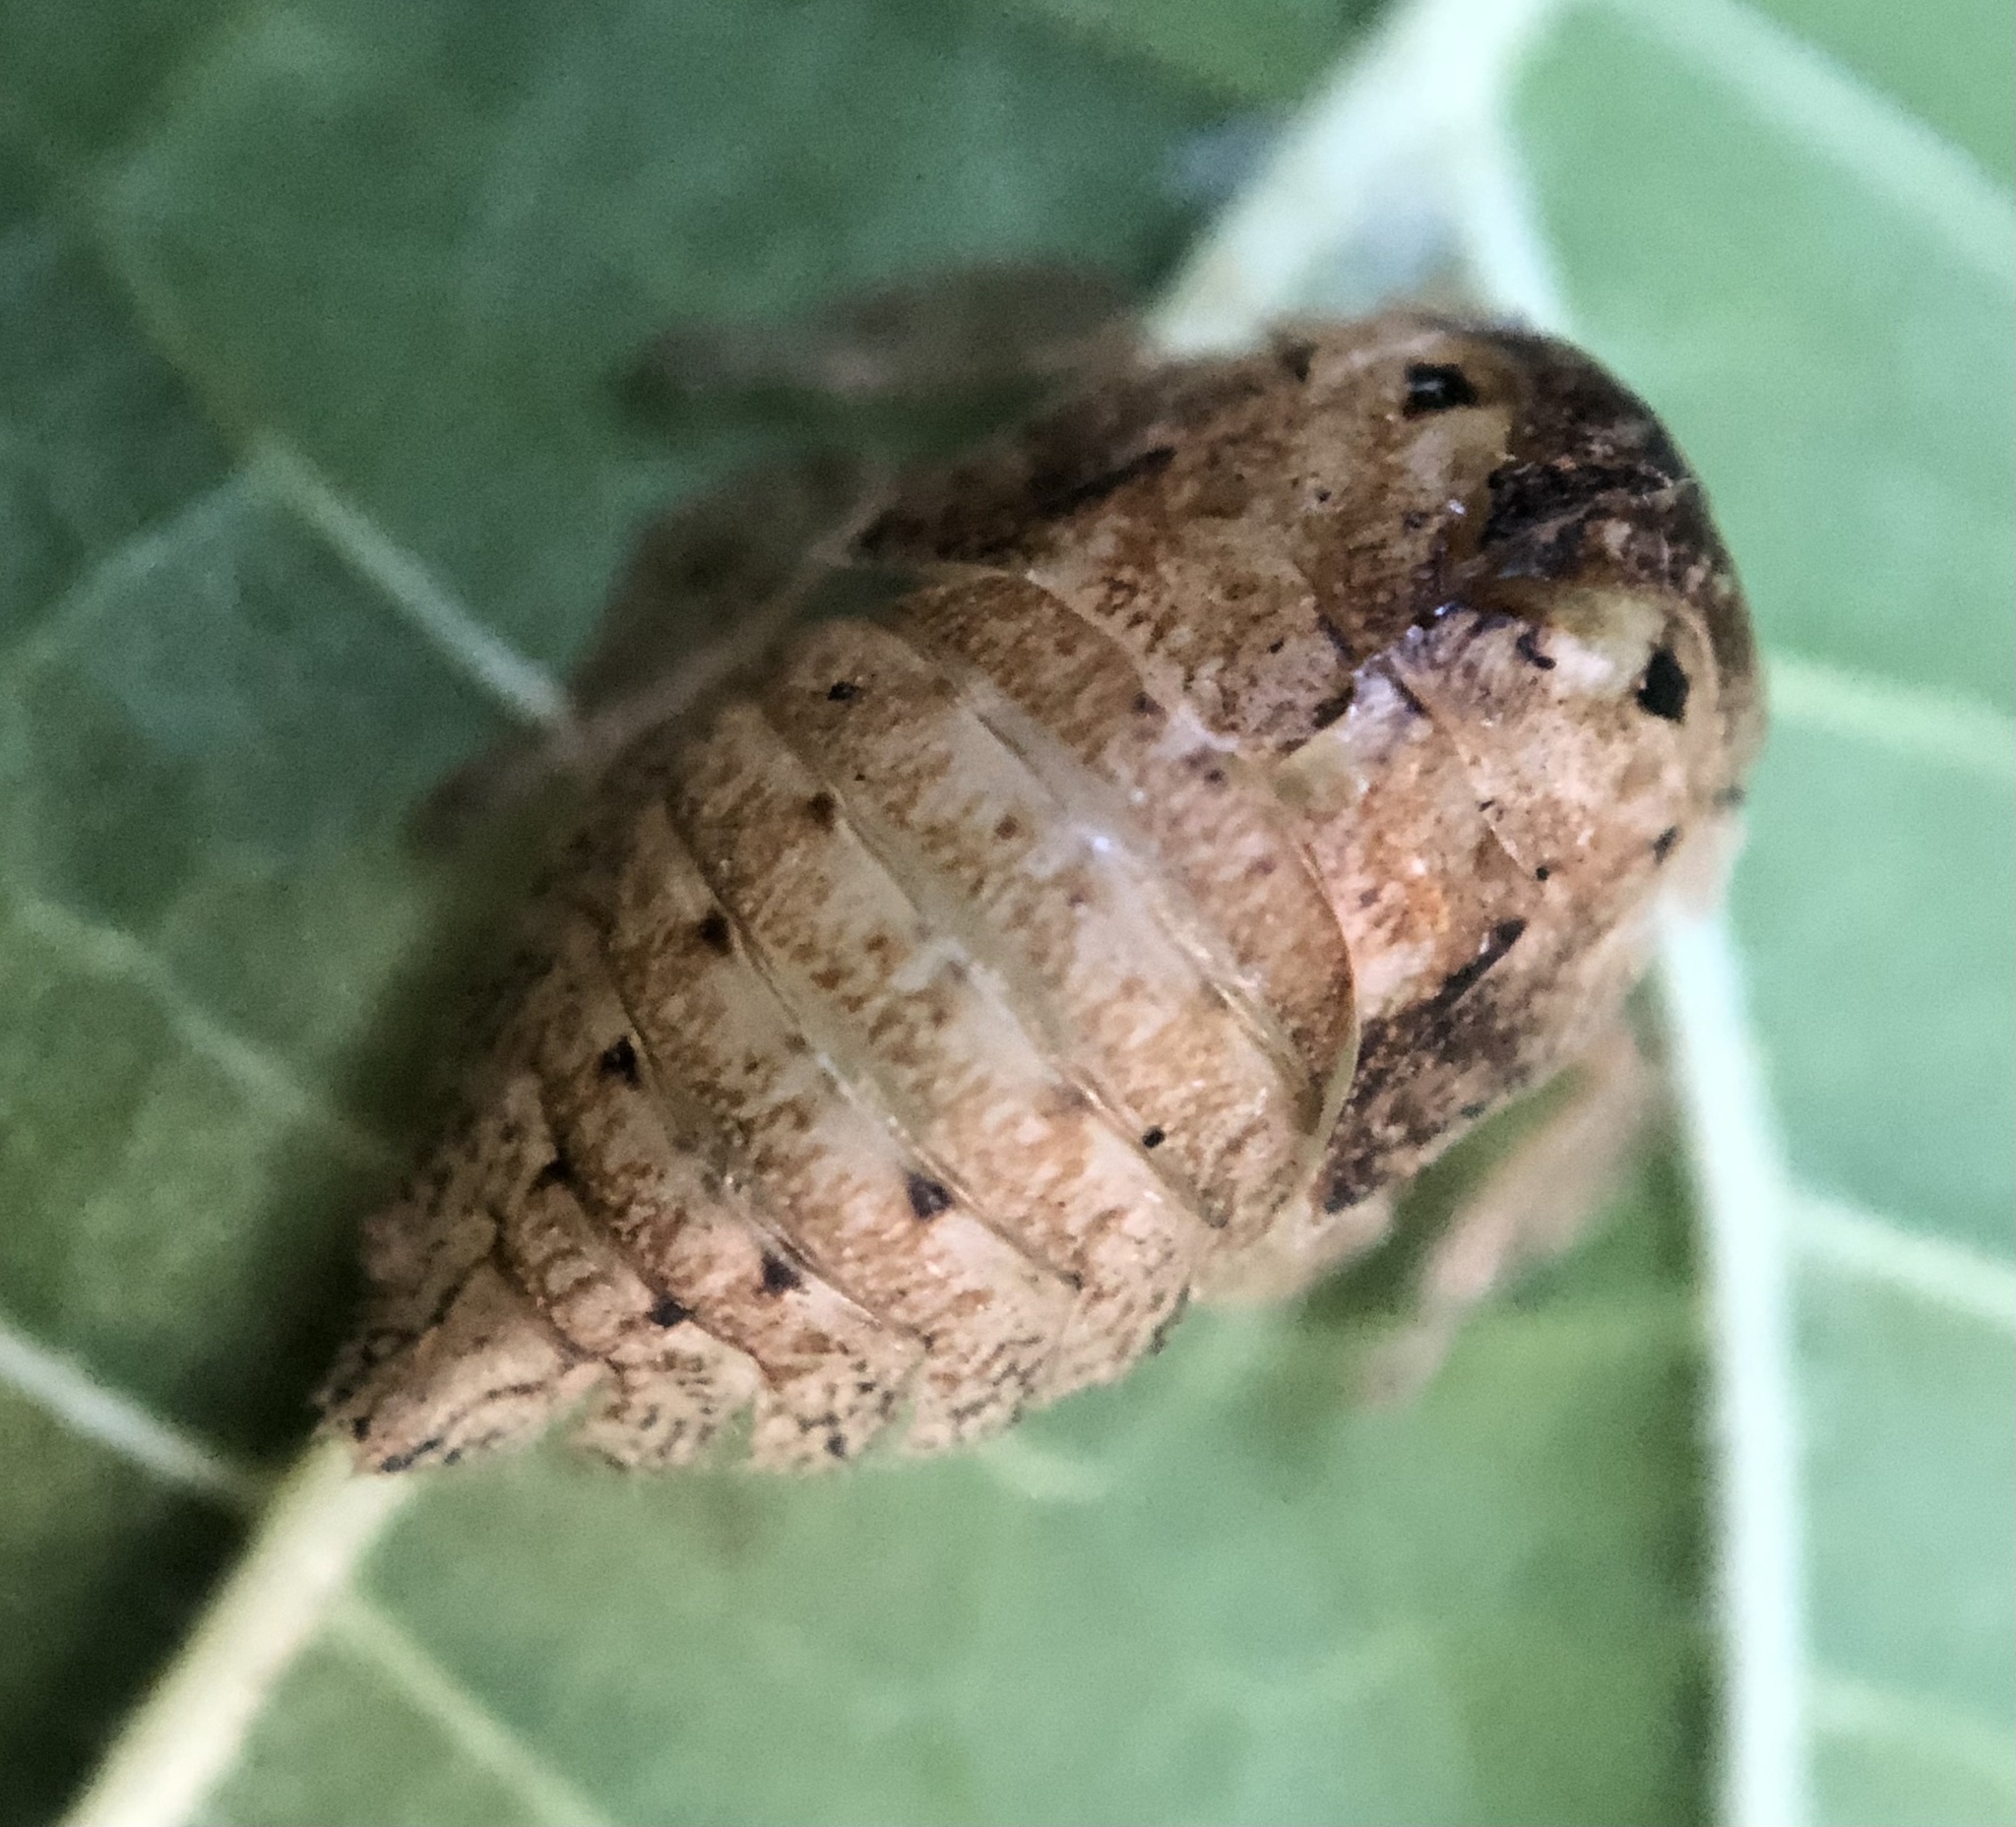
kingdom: Animalia
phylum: Arthropoda
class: Insecta
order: Hemiptera
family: Membracidae
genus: Hebetica
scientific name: Hebetica
